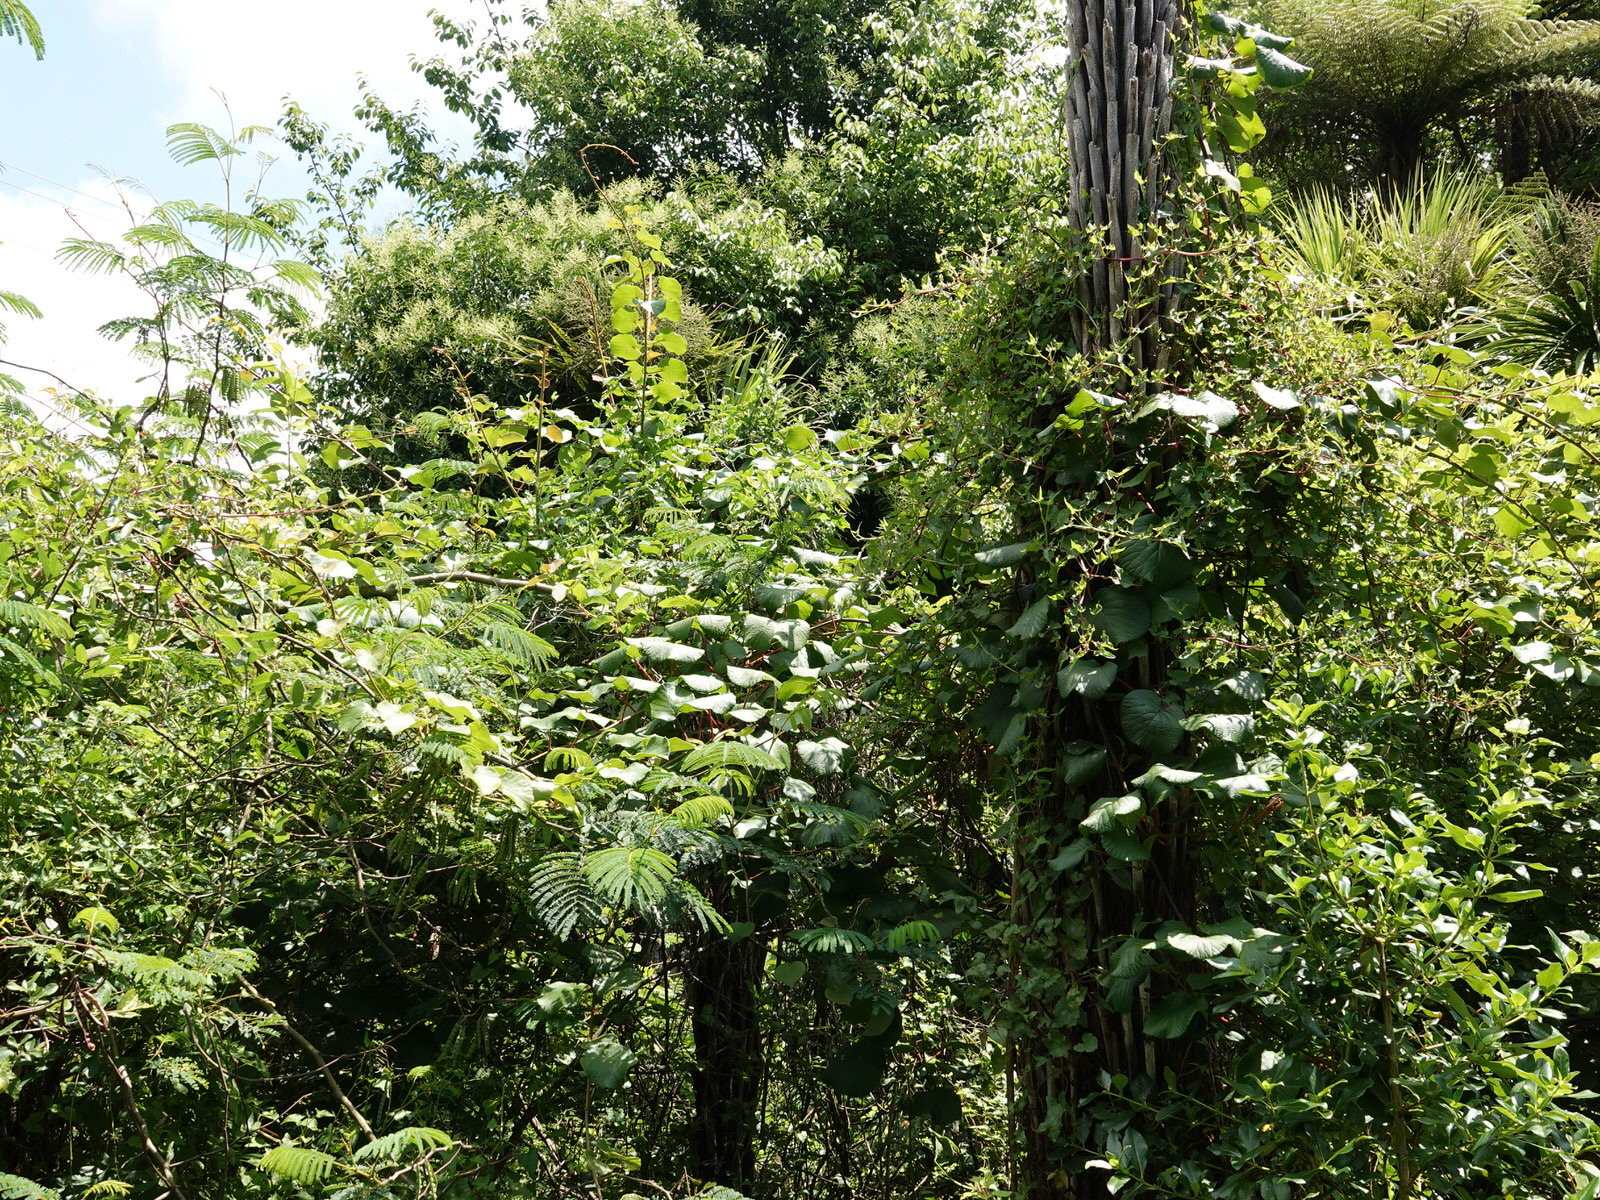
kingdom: Plantae
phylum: Tracheophyta
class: Magnoliopsida
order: Ericales
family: Actinidiaceae
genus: Actinidia
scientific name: Actinidia chinensis
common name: Kiwi
